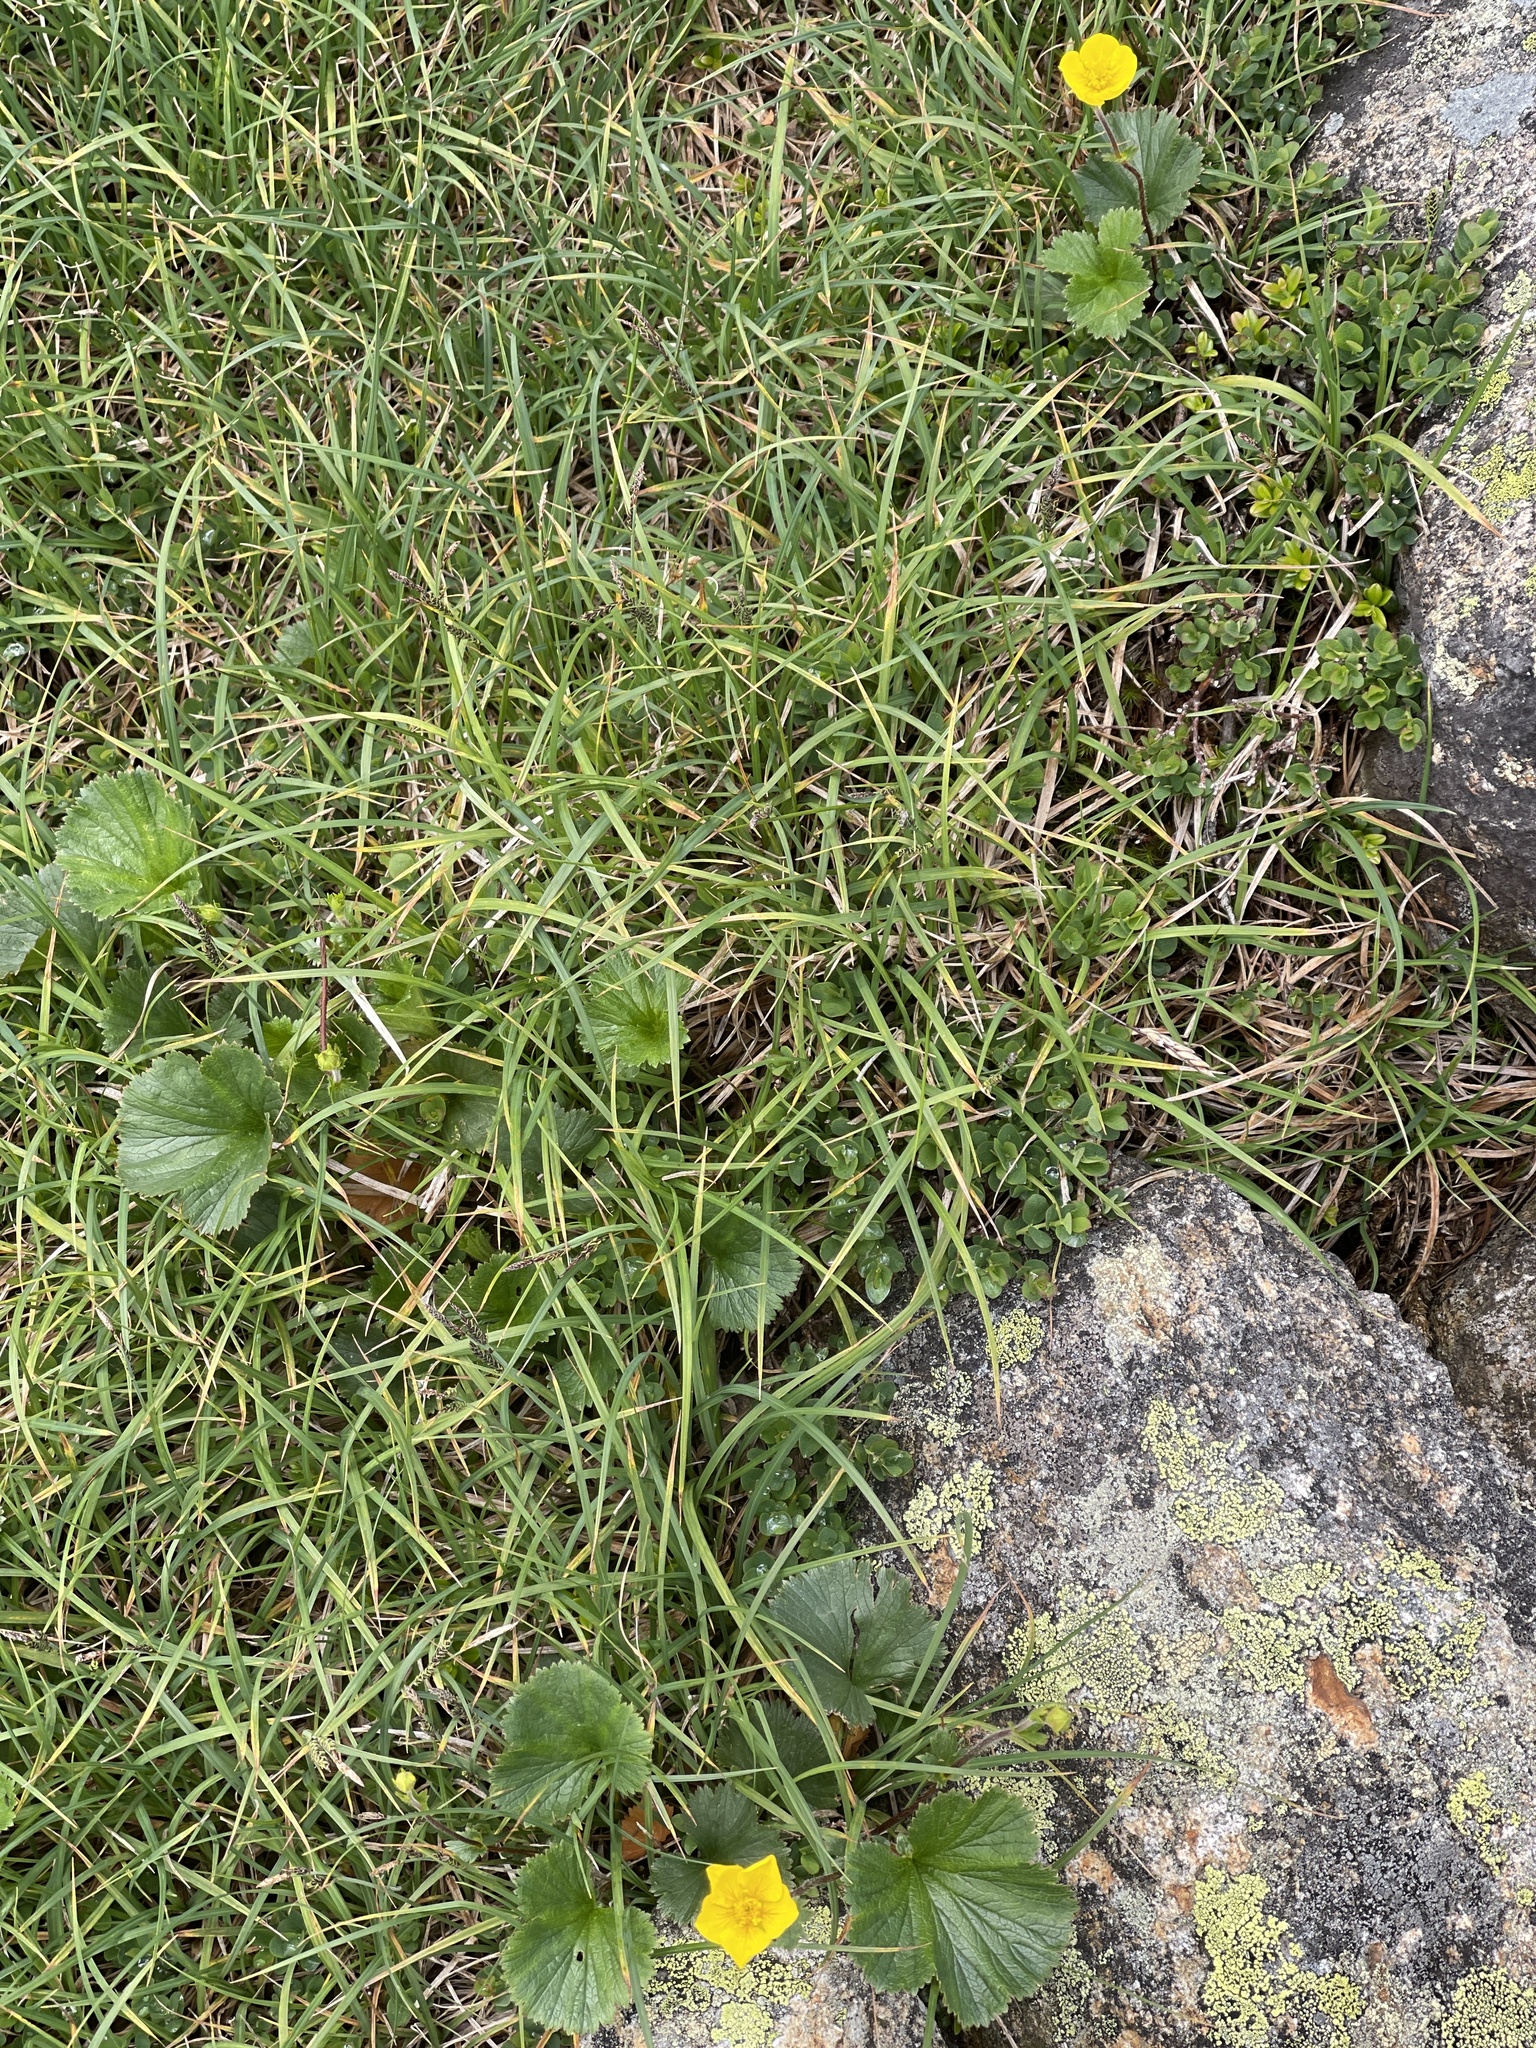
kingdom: Plantae
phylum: Tracheophyta
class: Magnoliopsida
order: Rosales
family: Rosaceae
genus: Geum
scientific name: Geum peckii
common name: Eastern mountain avens
